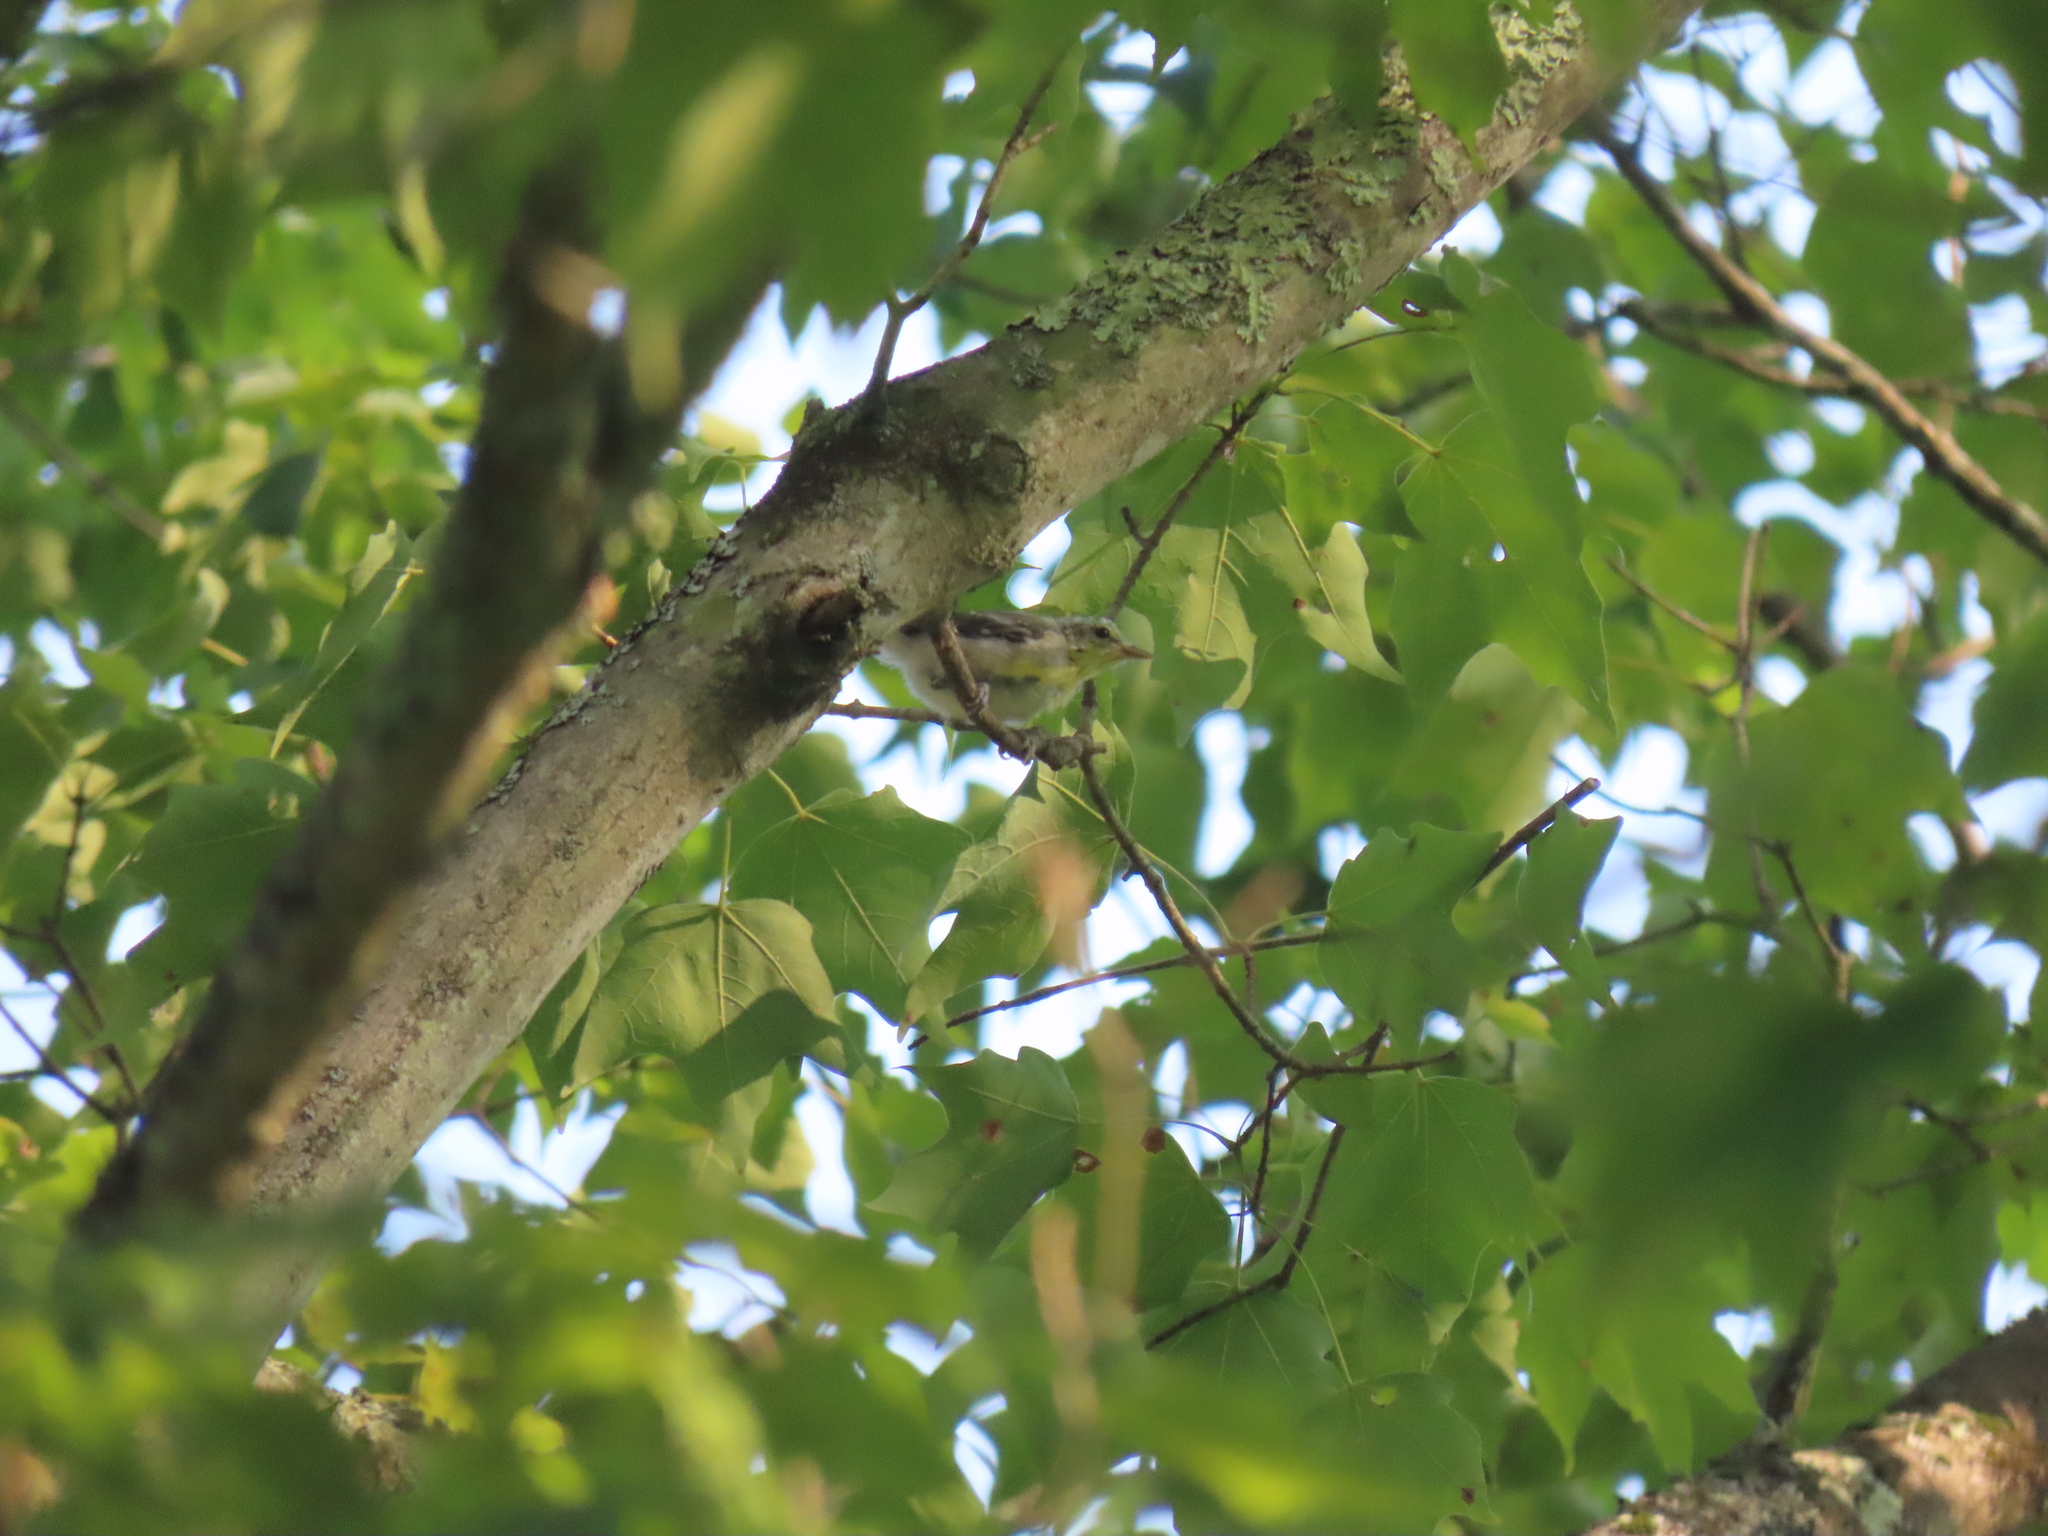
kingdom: Animalia
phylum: Chordata
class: Aves
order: Passeriformes
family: Parulidae
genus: Setophaga
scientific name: Setophaga cerulea
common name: Cerulean warbler
